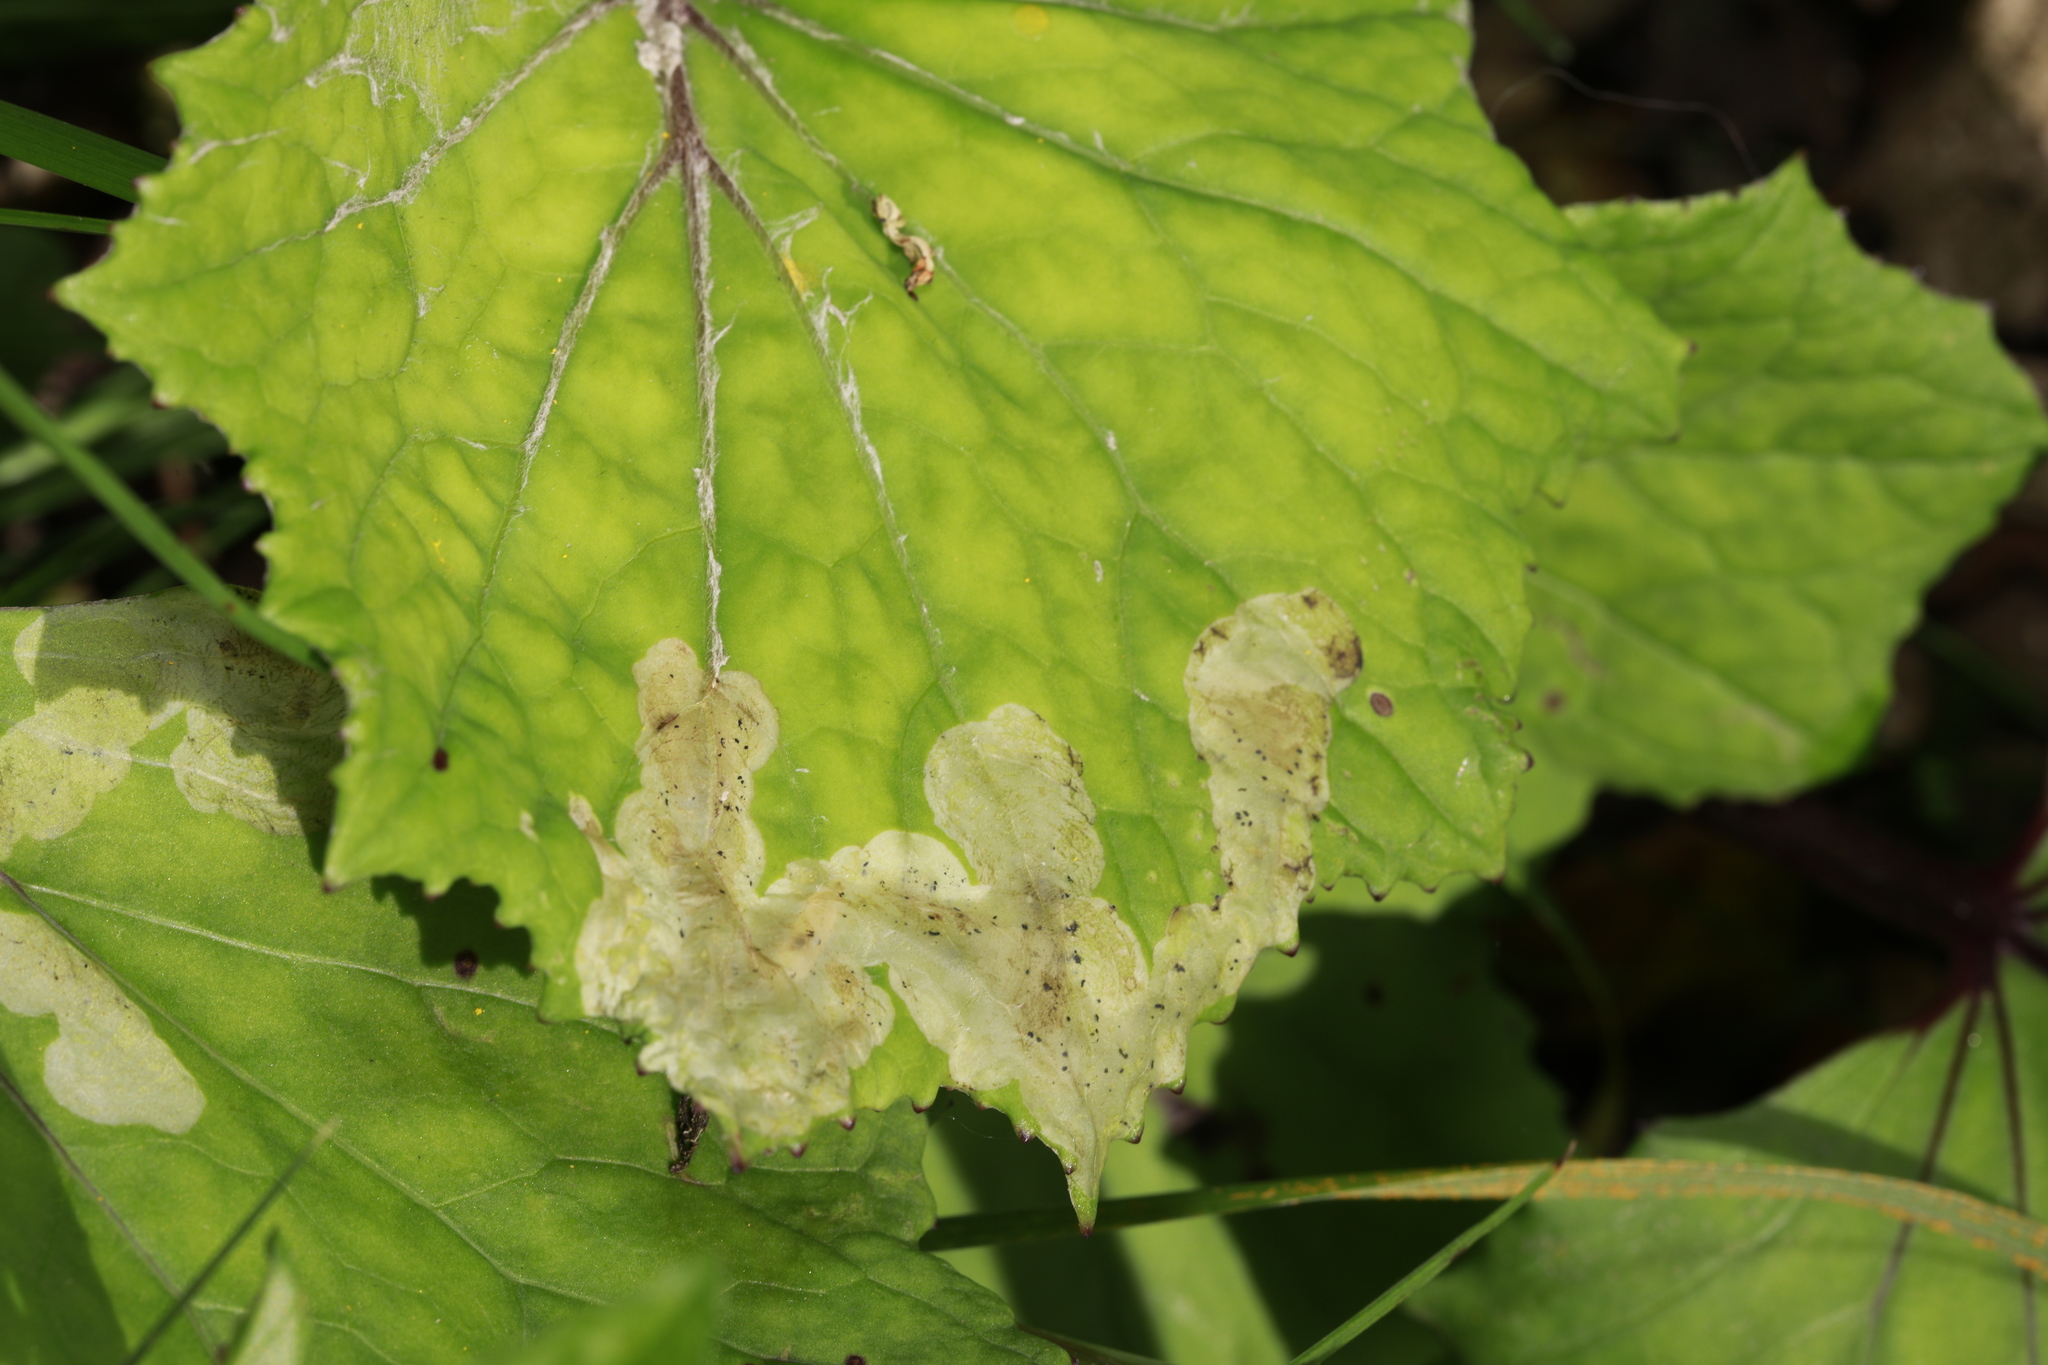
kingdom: Animalia
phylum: Arthropoda
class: Insecta
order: Diptera
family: Agromyzidae
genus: Phytomyza
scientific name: Phytomyza tussilaginis
